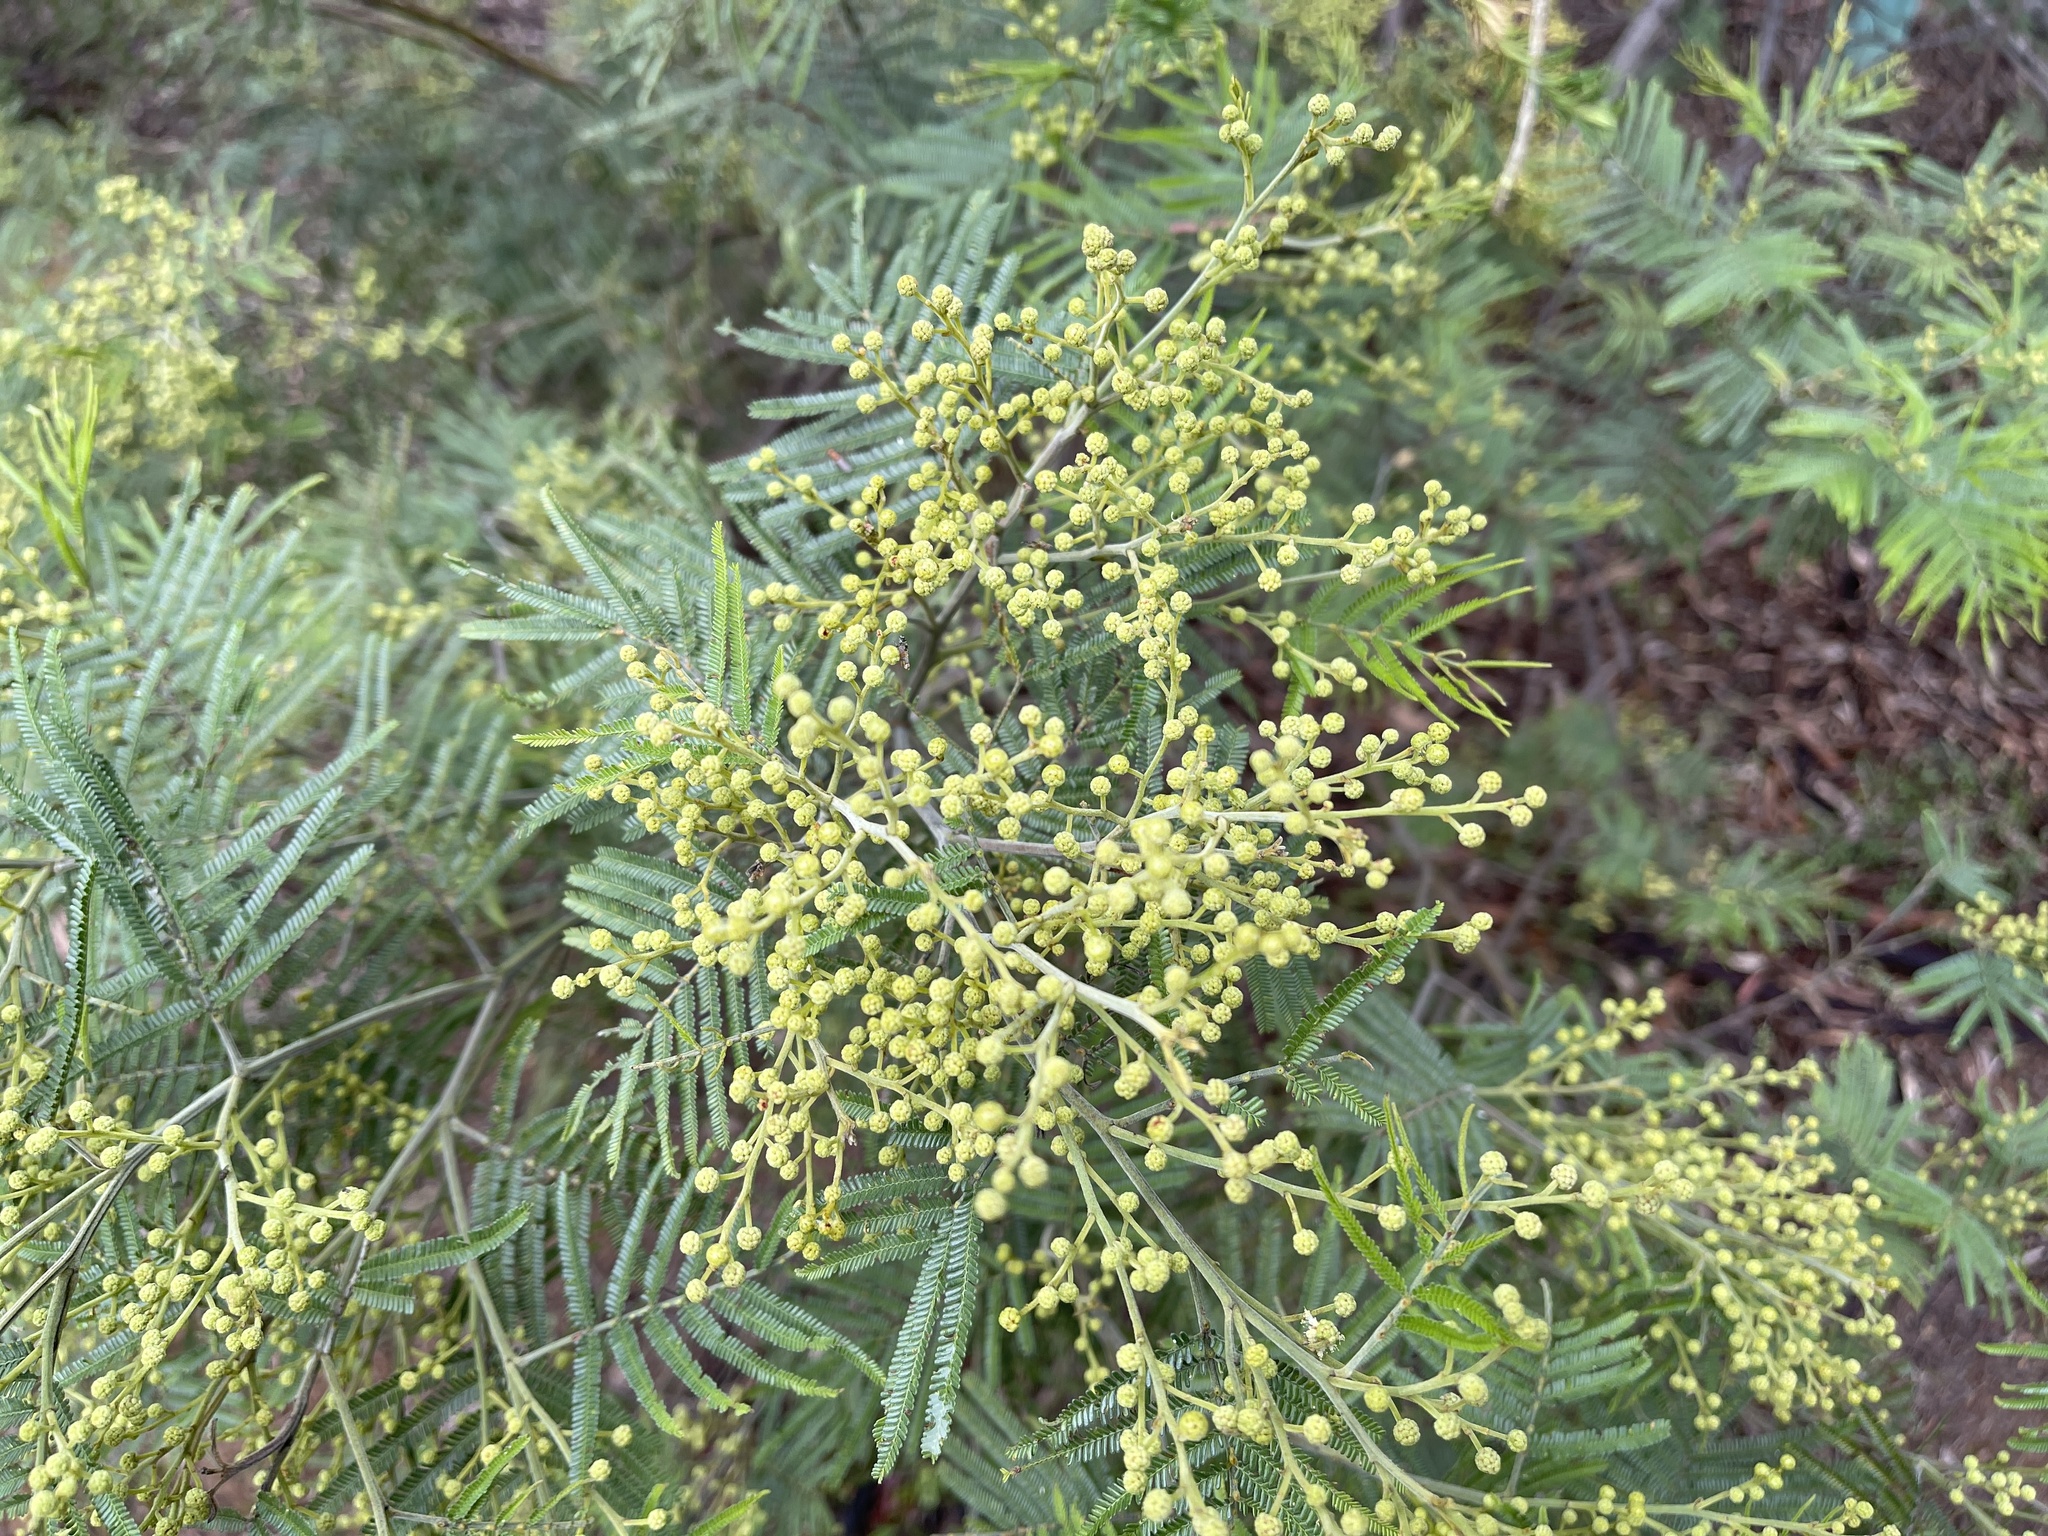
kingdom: Plantae
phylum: Tracheophyta
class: Magnoliopsida
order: Fabales
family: Fabaceae
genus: Acacia
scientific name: Acacia mearnsii
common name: Black wattle
